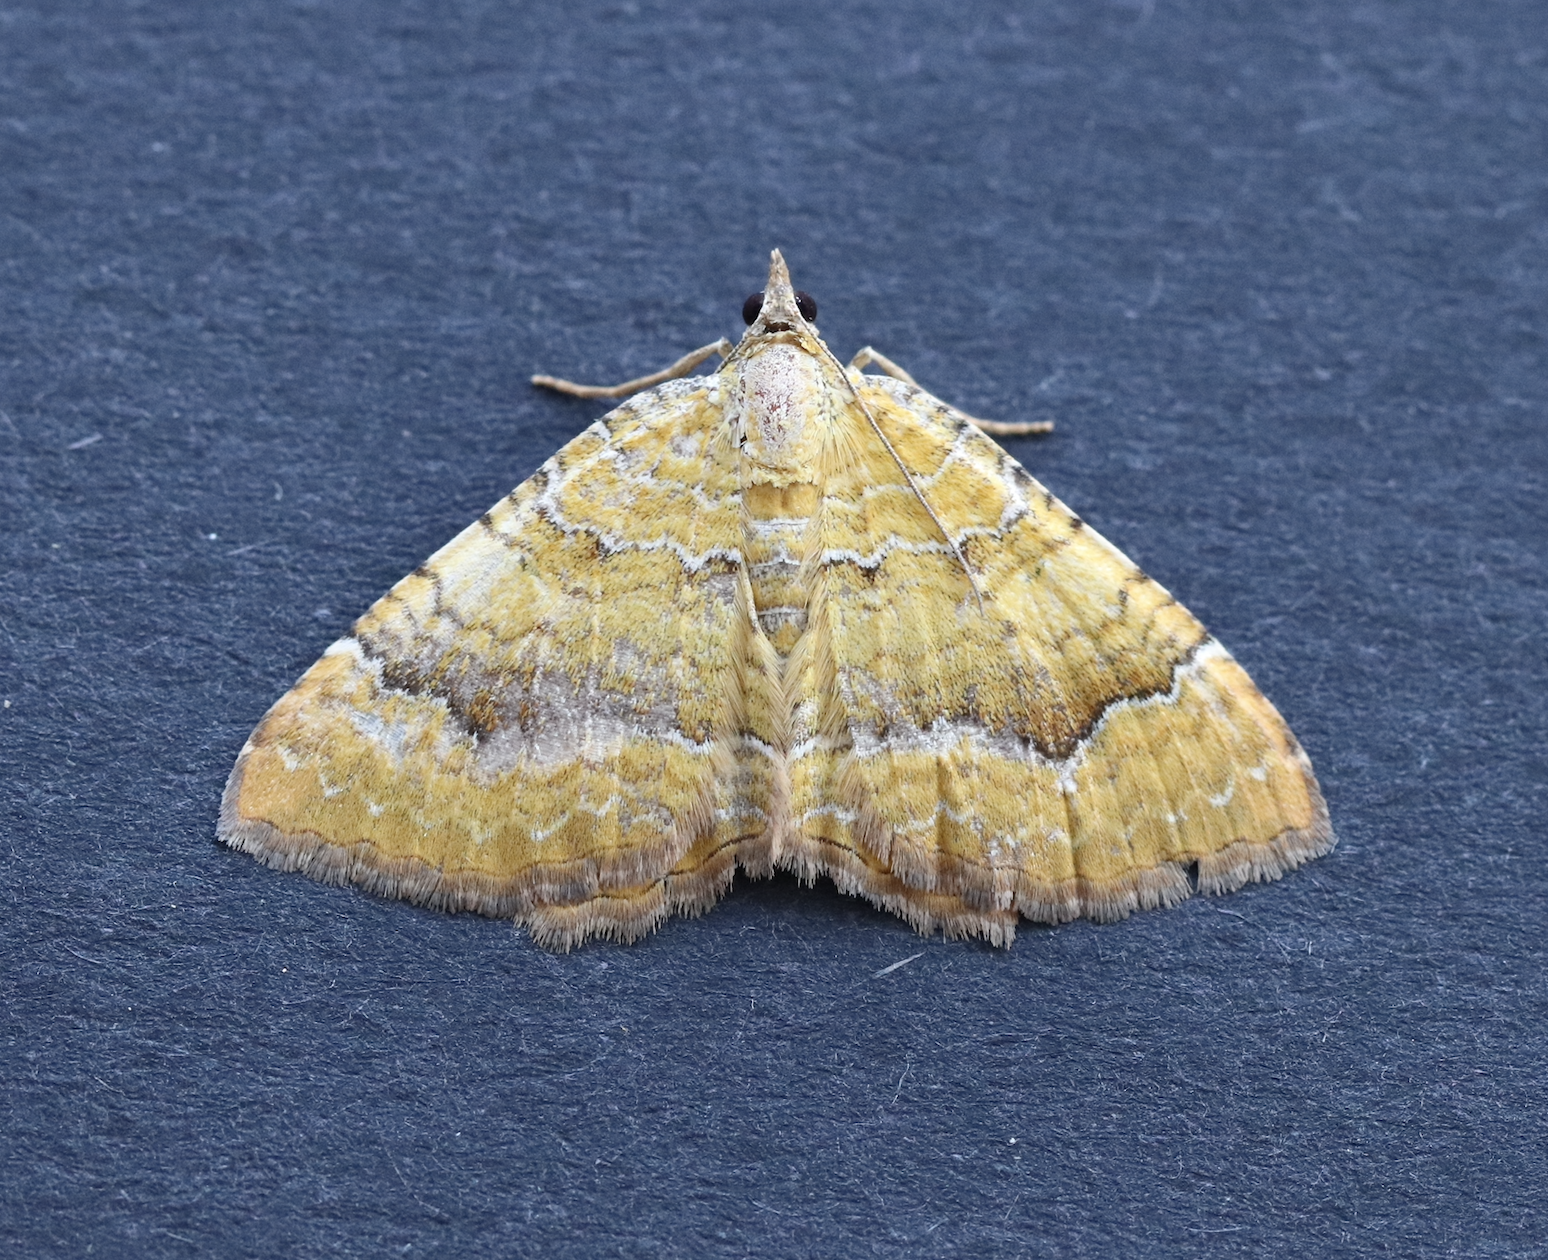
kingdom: Animalia
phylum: Arthropoda
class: Insecta
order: Lepidoptera
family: Geometridae
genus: Camptogramma
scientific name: Camptogramma bilineata
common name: Yellow shell
